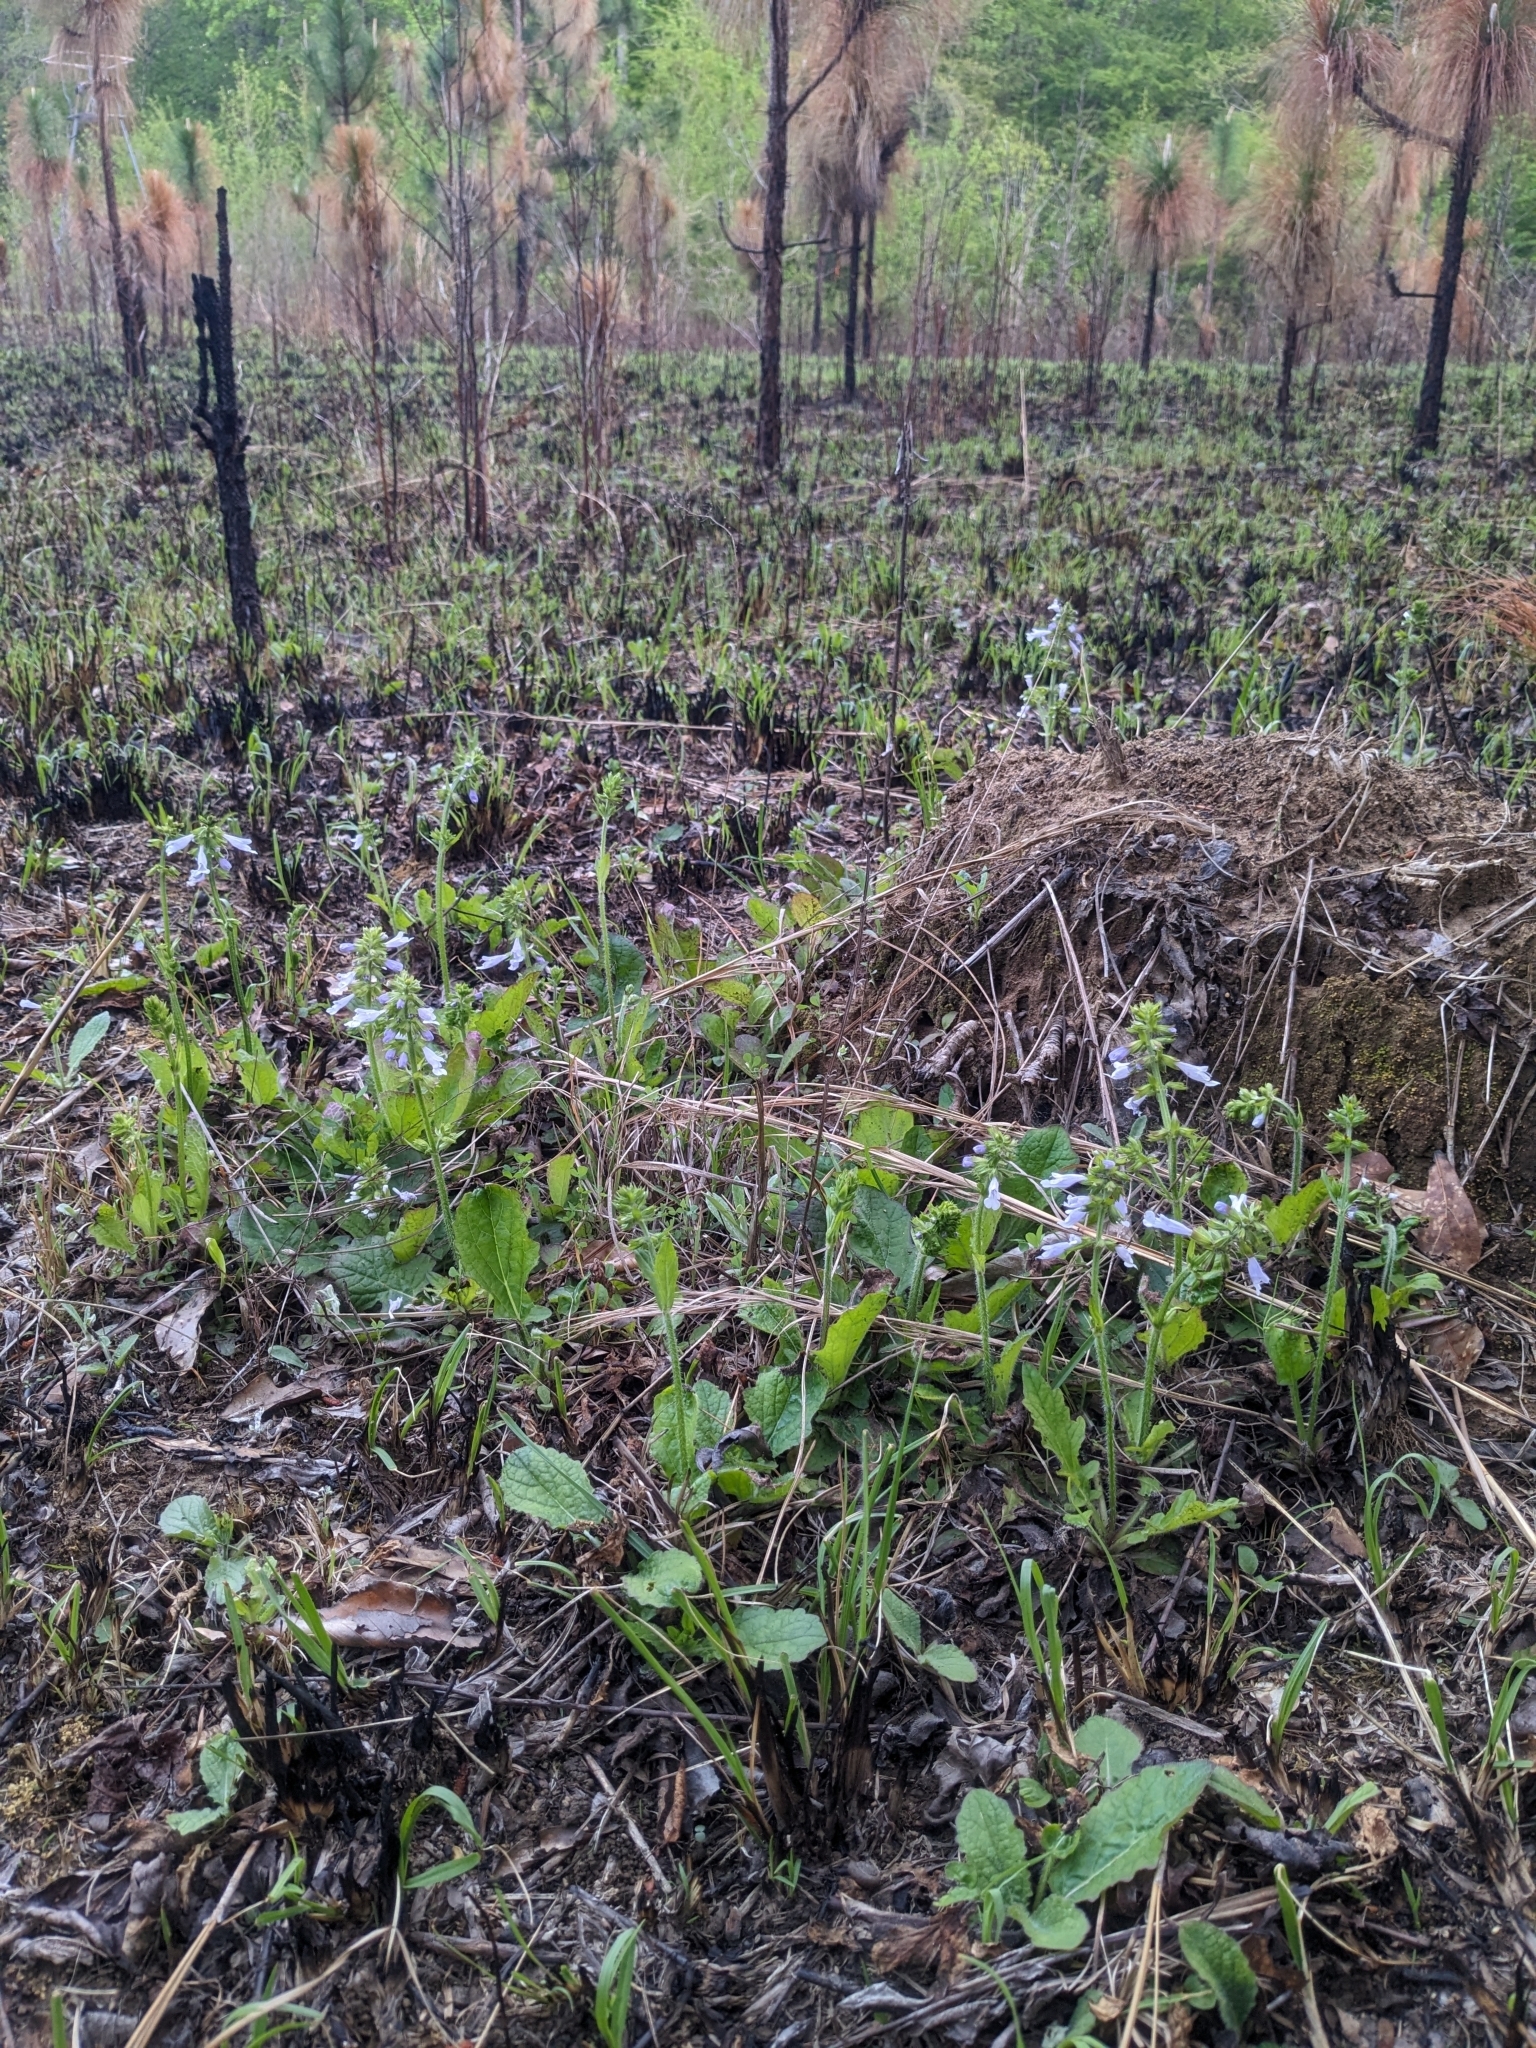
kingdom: Plantae
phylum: Tracheophyta
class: Magnoliopsida
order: Lamiales
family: Lamiaceae
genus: Salvia
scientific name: Salvia lyrata
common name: Cancerweed
